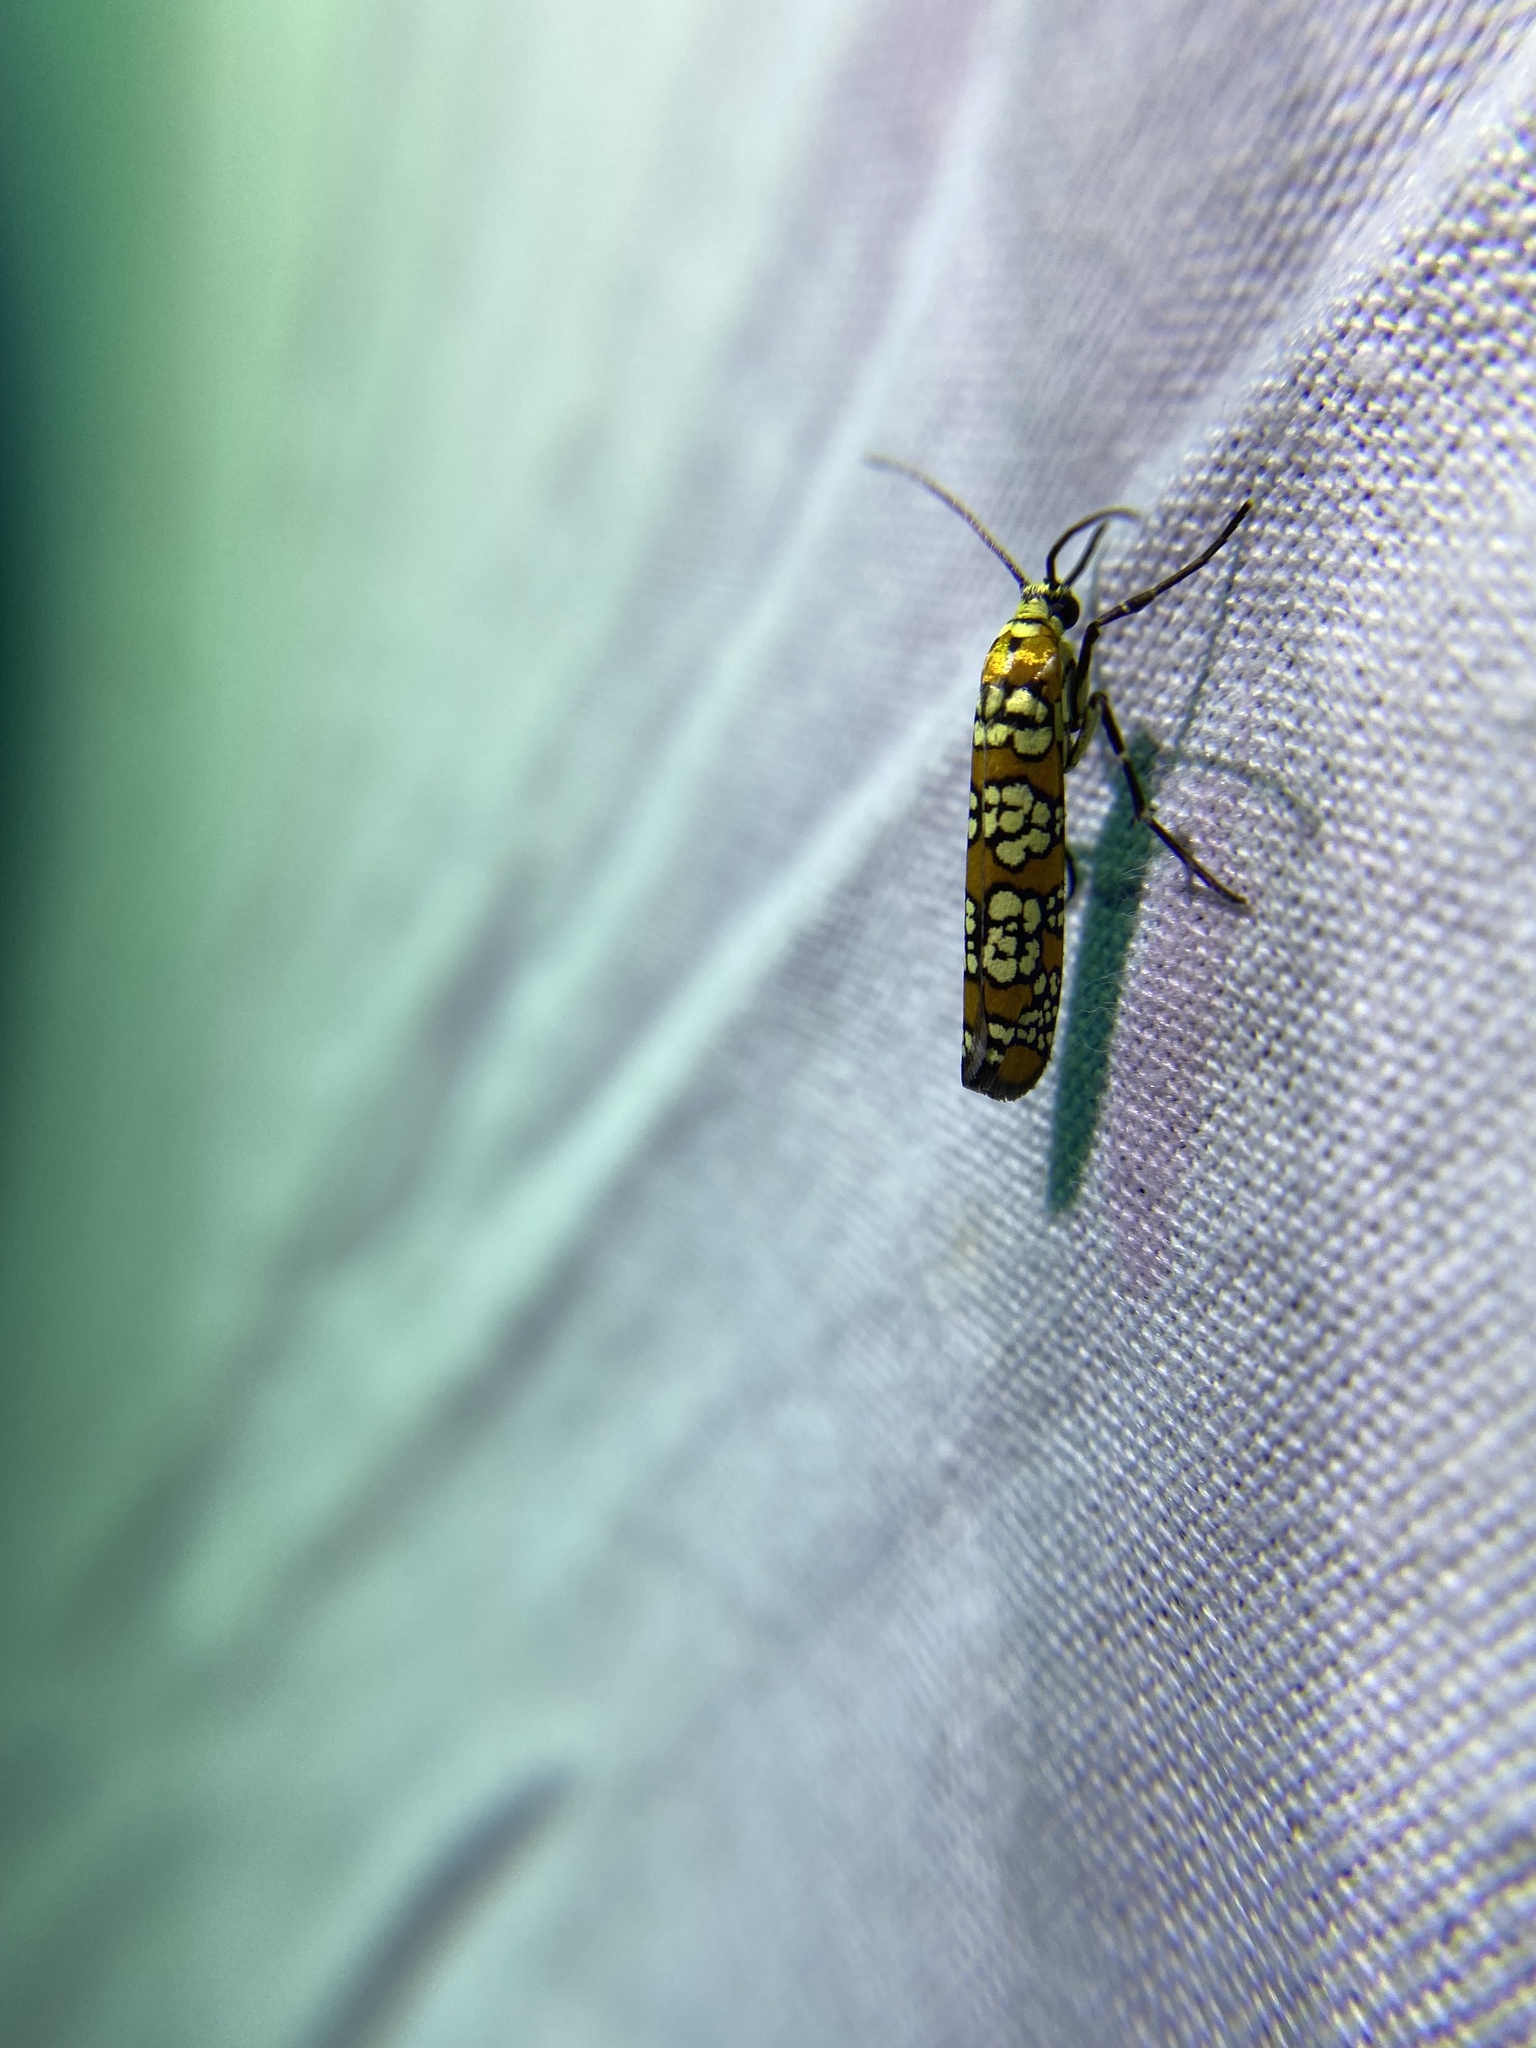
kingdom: Animalia
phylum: Arthropoda
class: Insecta
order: Lepidoptera
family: Attevidae
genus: Atteva
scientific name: Atteva punctella
